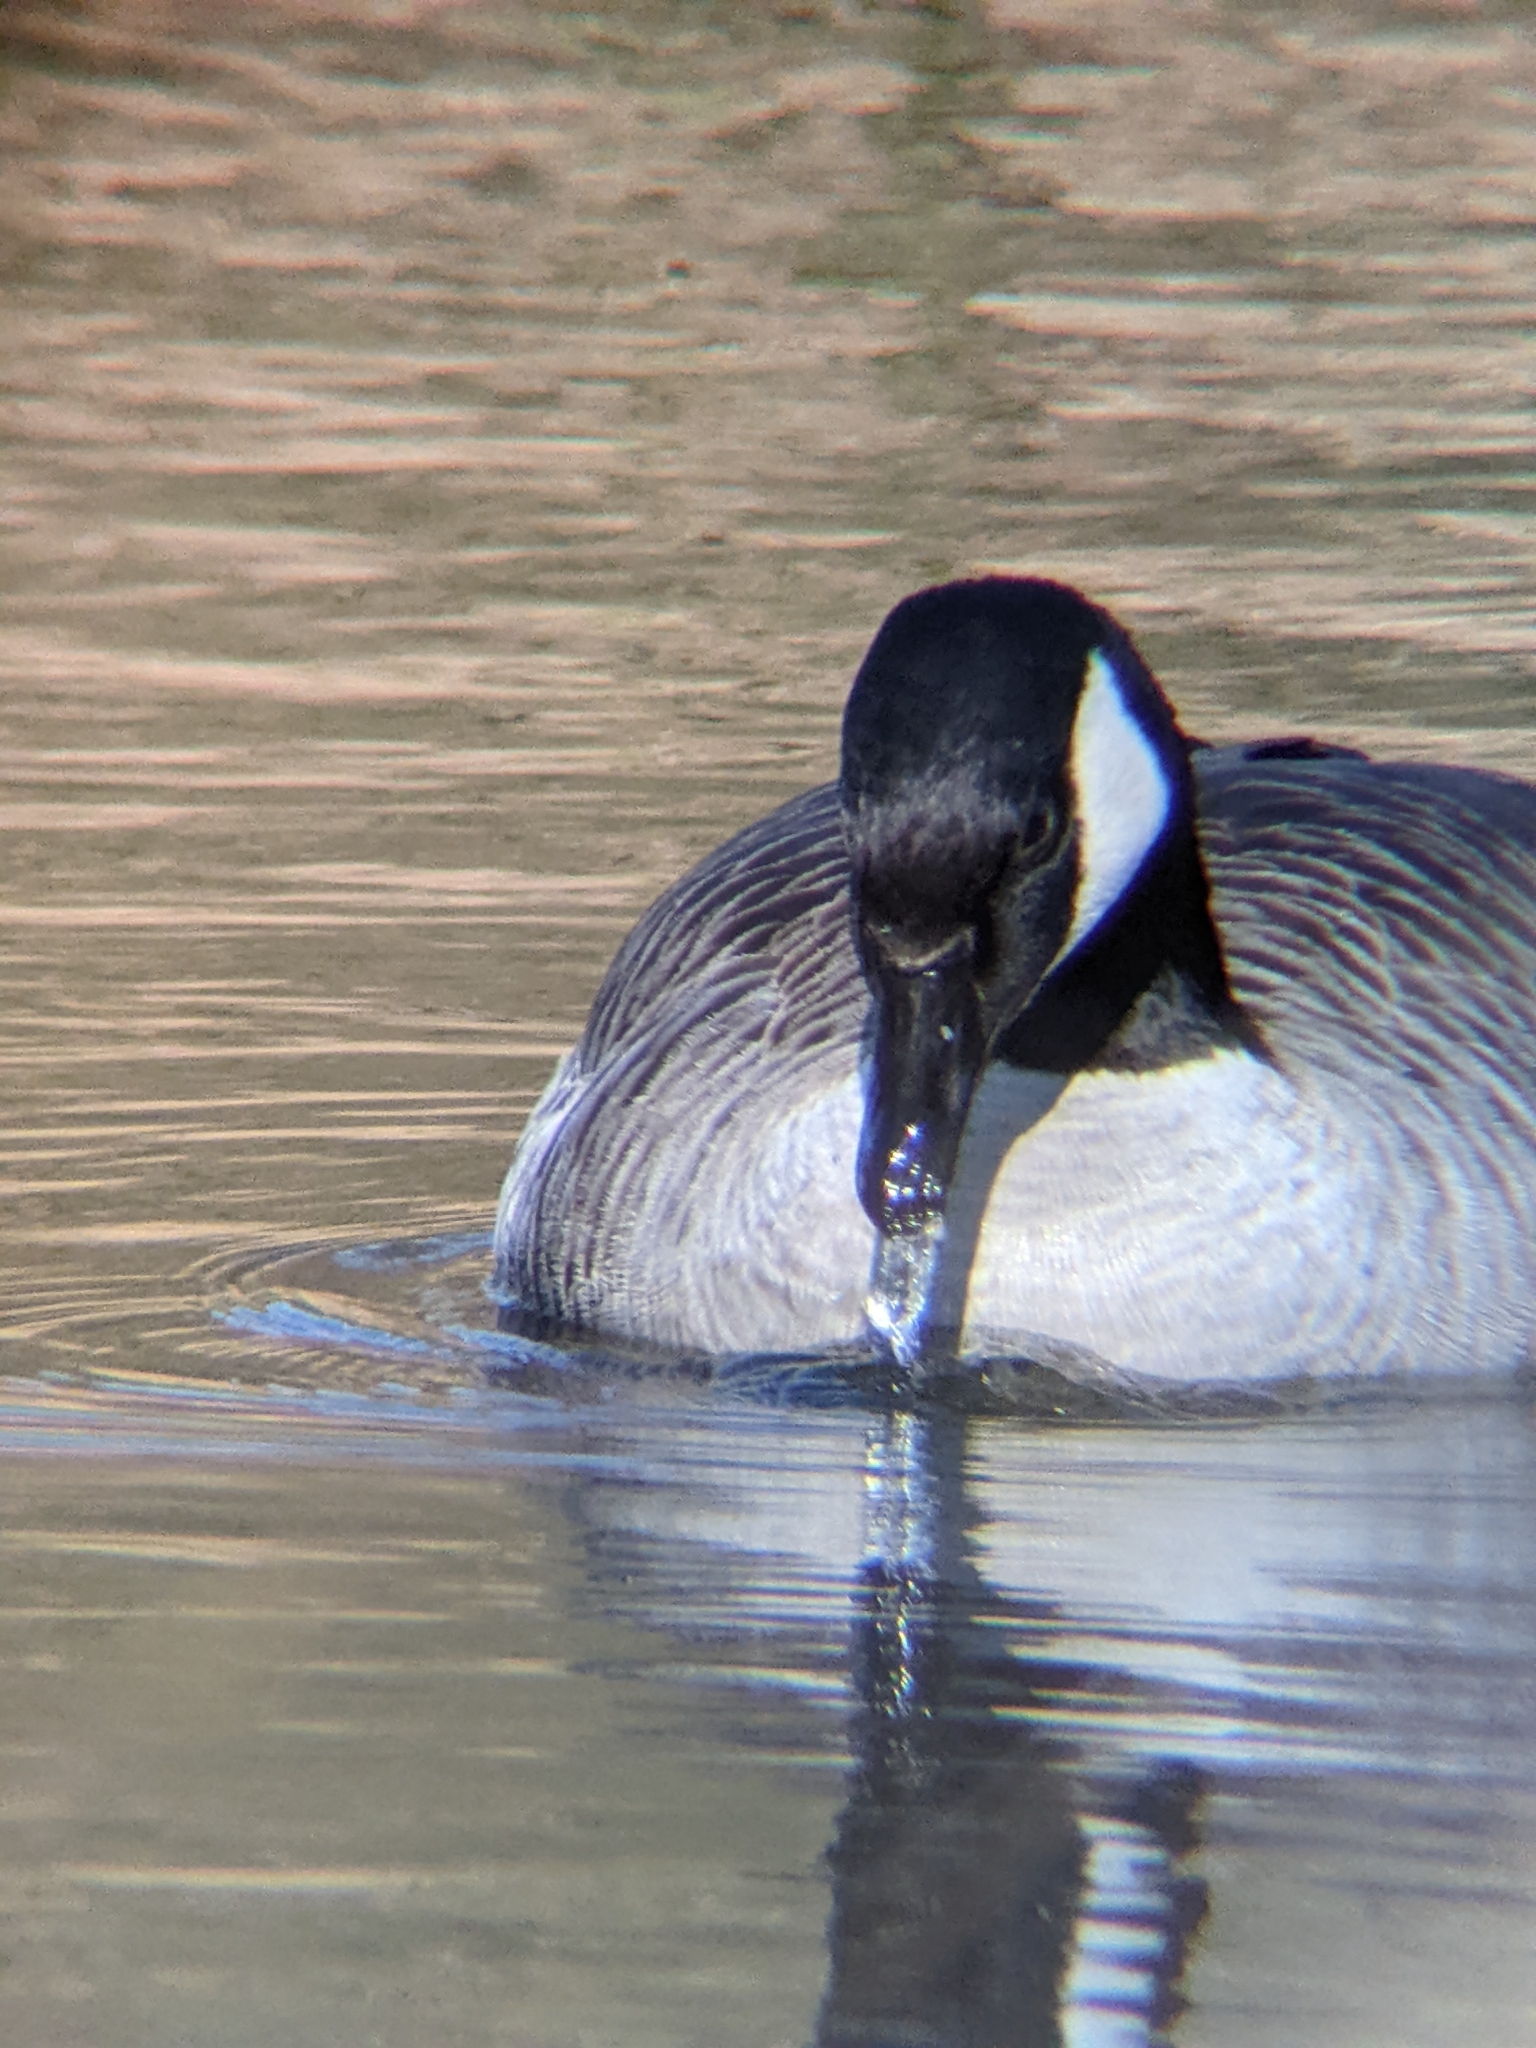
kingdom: Animalia
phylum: Chordata
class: Aves
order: Anseriformes
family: Anatidae
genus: Branta
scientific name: Branta canadensis
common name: Canada goose
